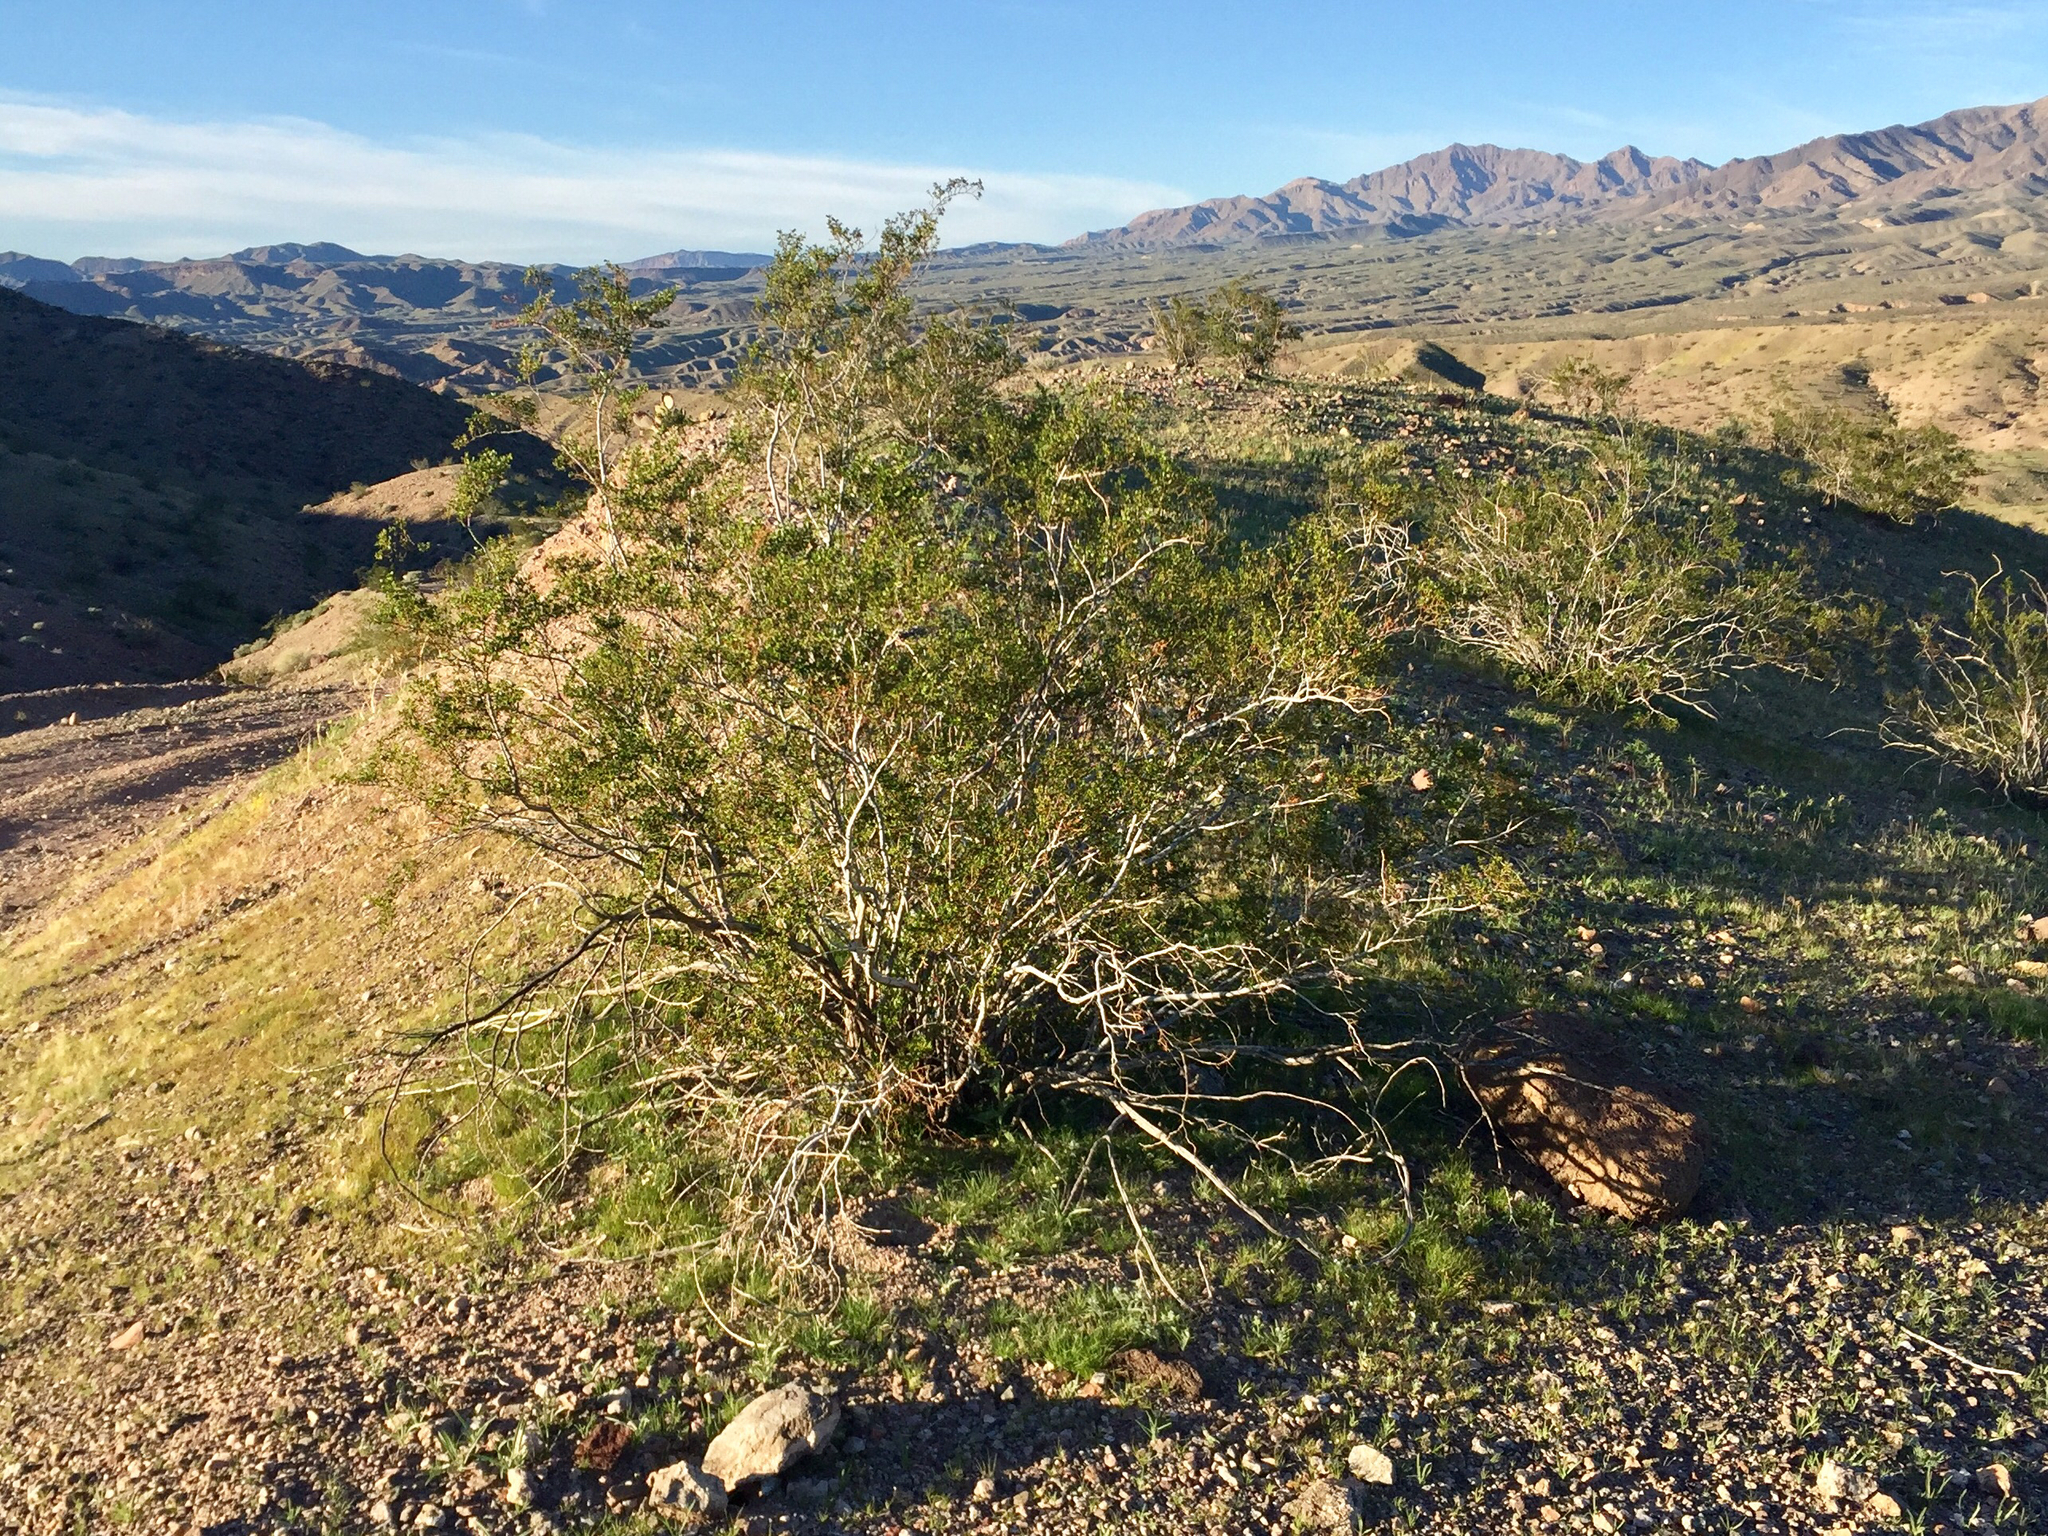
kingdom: Plantae
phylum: Tracheophyta
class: Magnoliopsida
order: Zygophyllales
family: Zygophyllaceae
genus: Larrea
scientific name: Larrea tridentata
